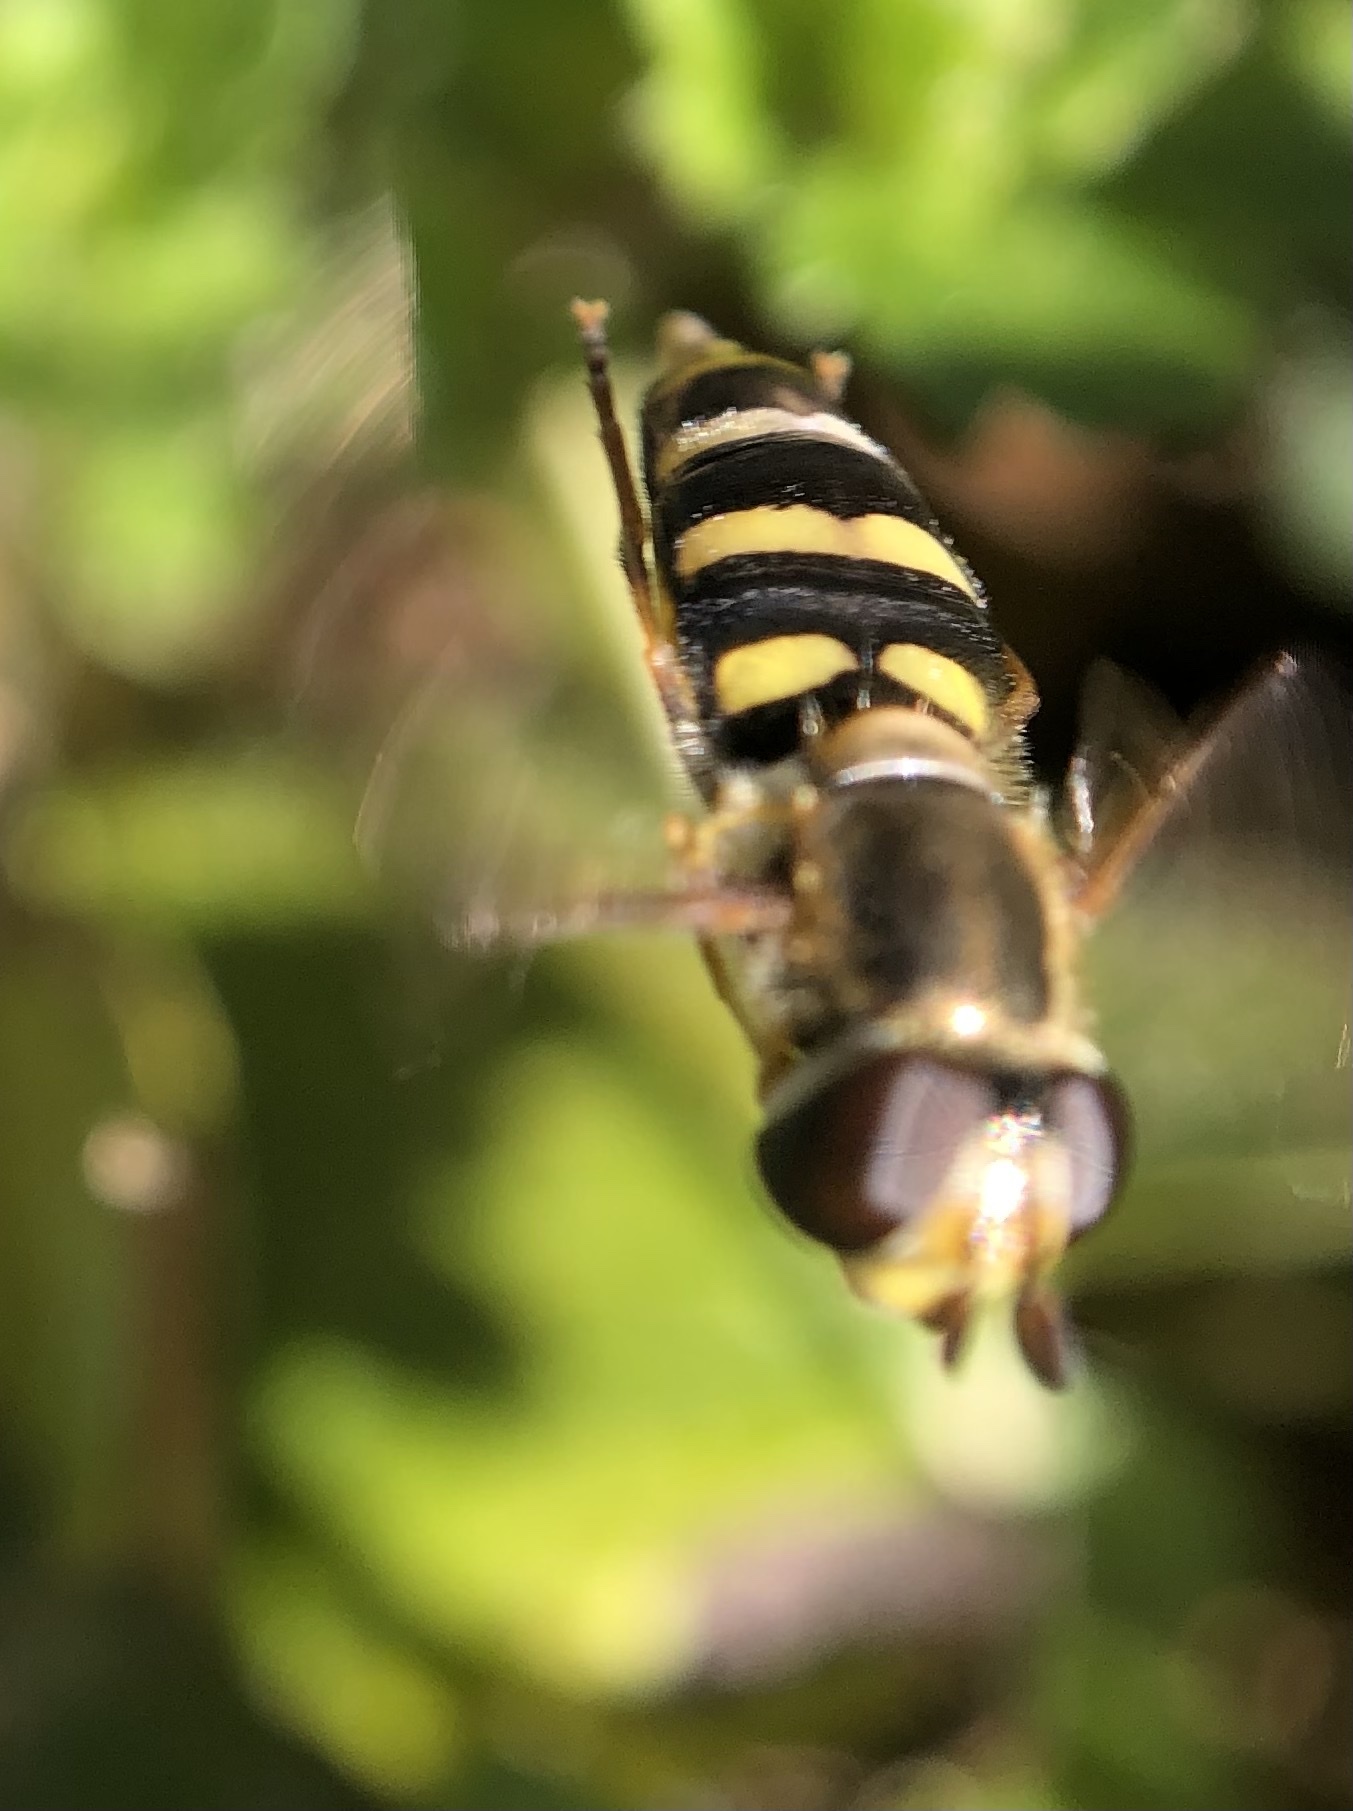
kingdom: Animalia
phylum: Arthropoda
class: Insecta
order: Diptera
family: Syrphidae
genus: Eupeodes
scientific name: Eupeodes
